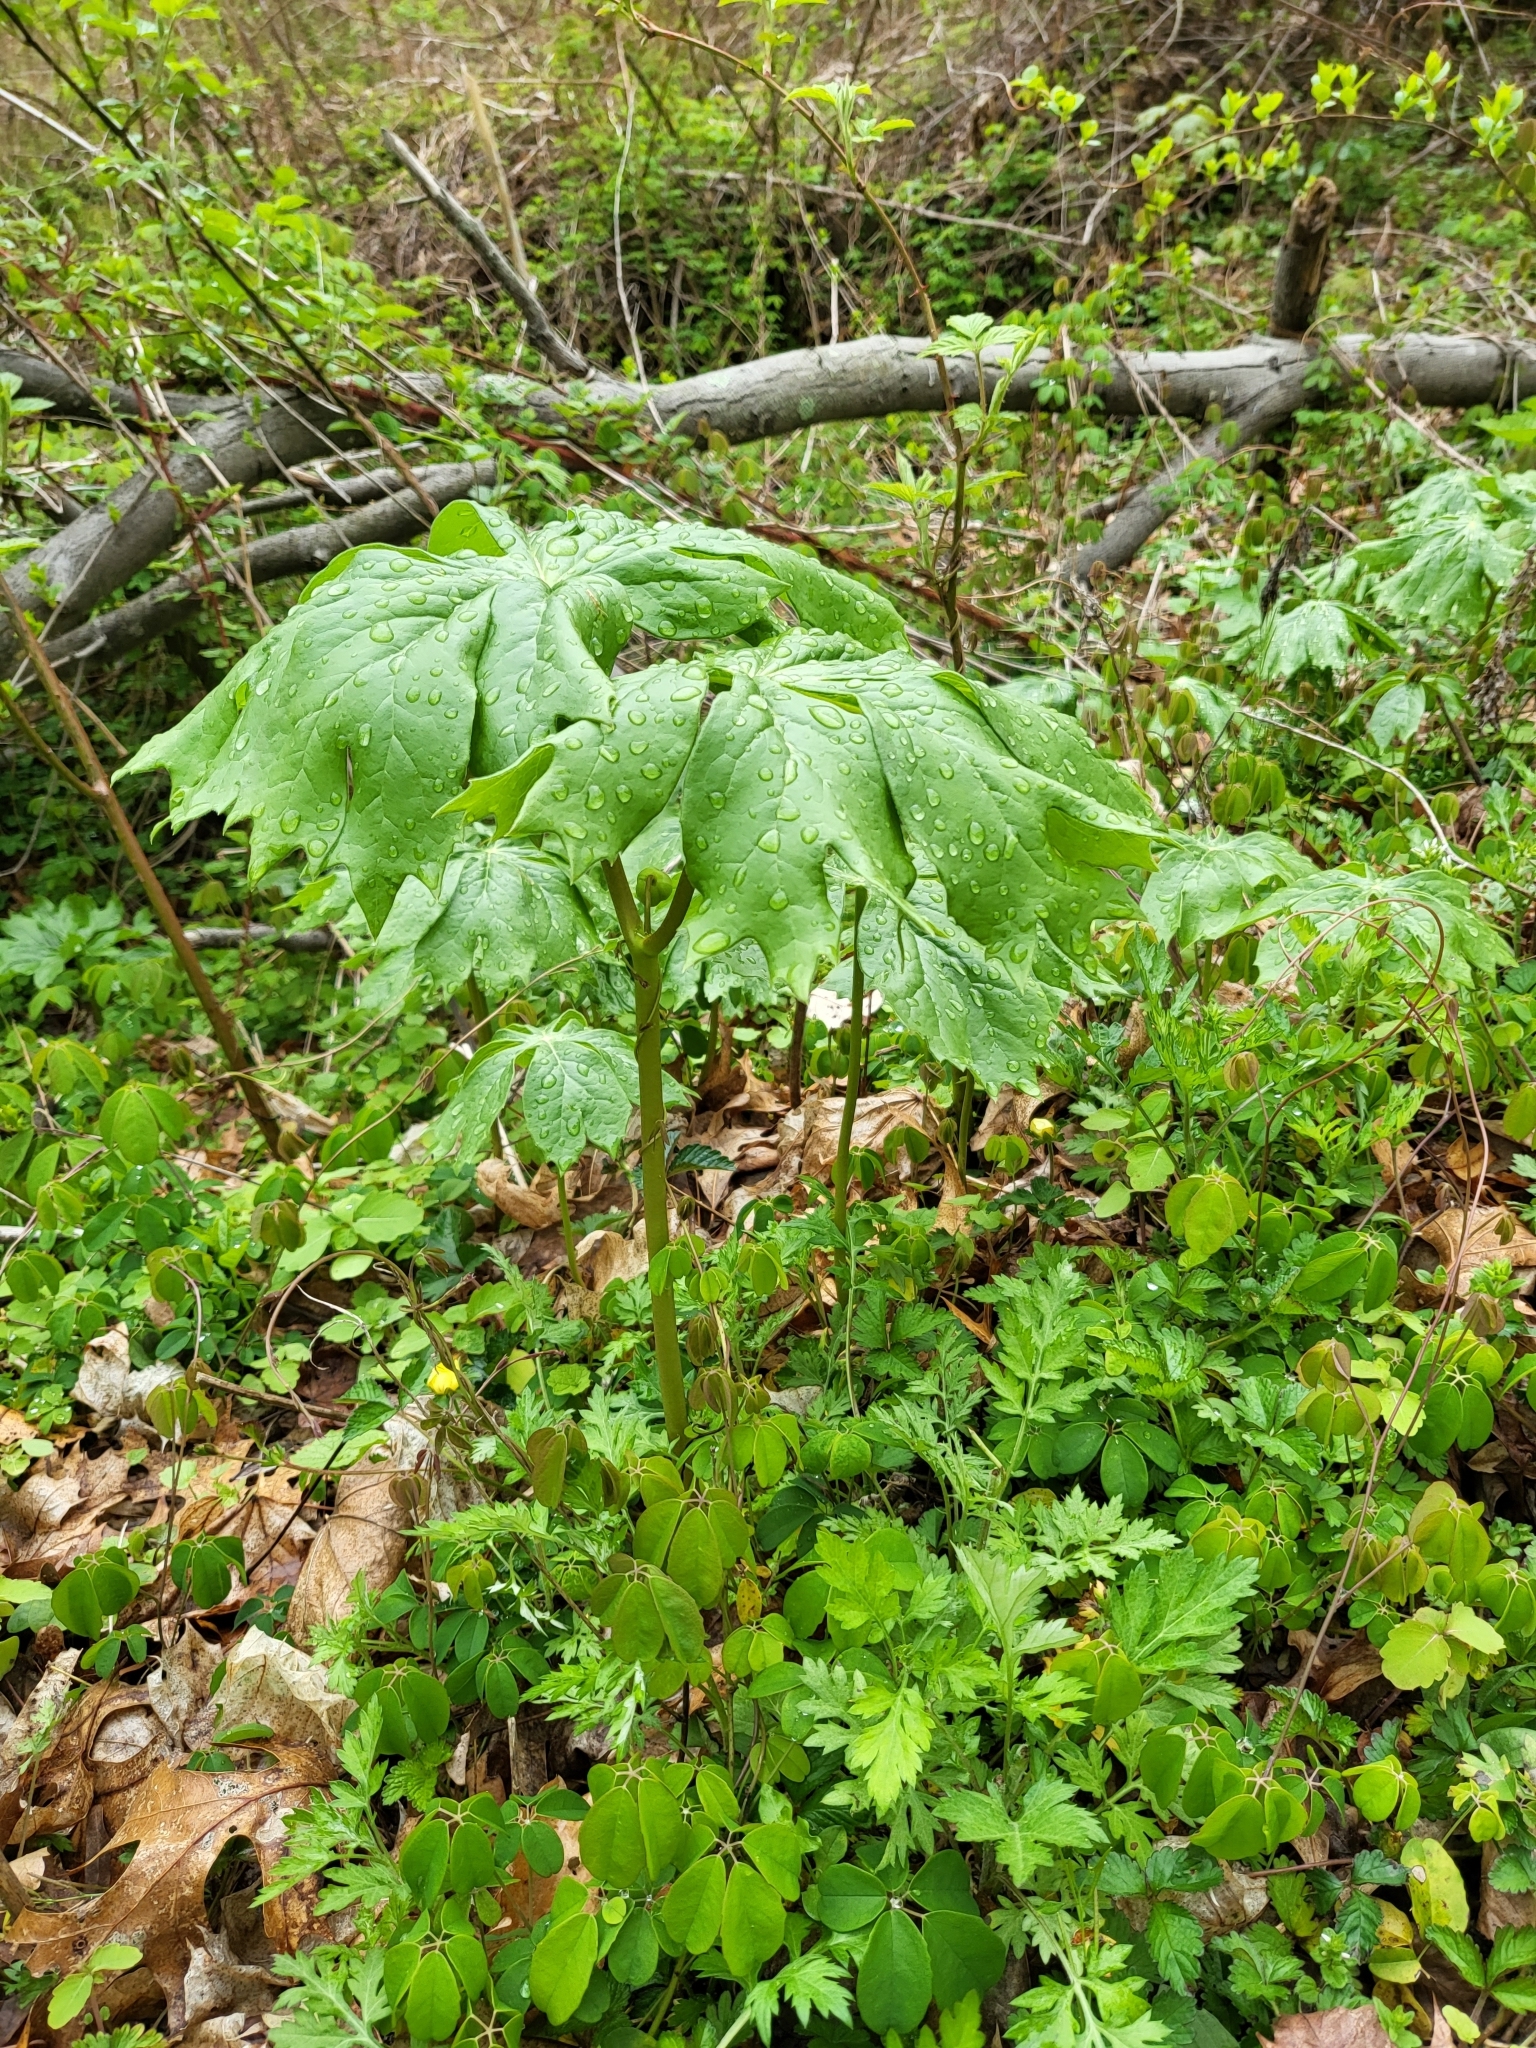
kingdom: Plantae
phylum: Tracheophyta
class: Magnoliopsida
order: Ranunculales
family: Berberidaceae
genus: Podophyllum
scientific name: Podophyllum peltatum
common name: Wild mandrake
